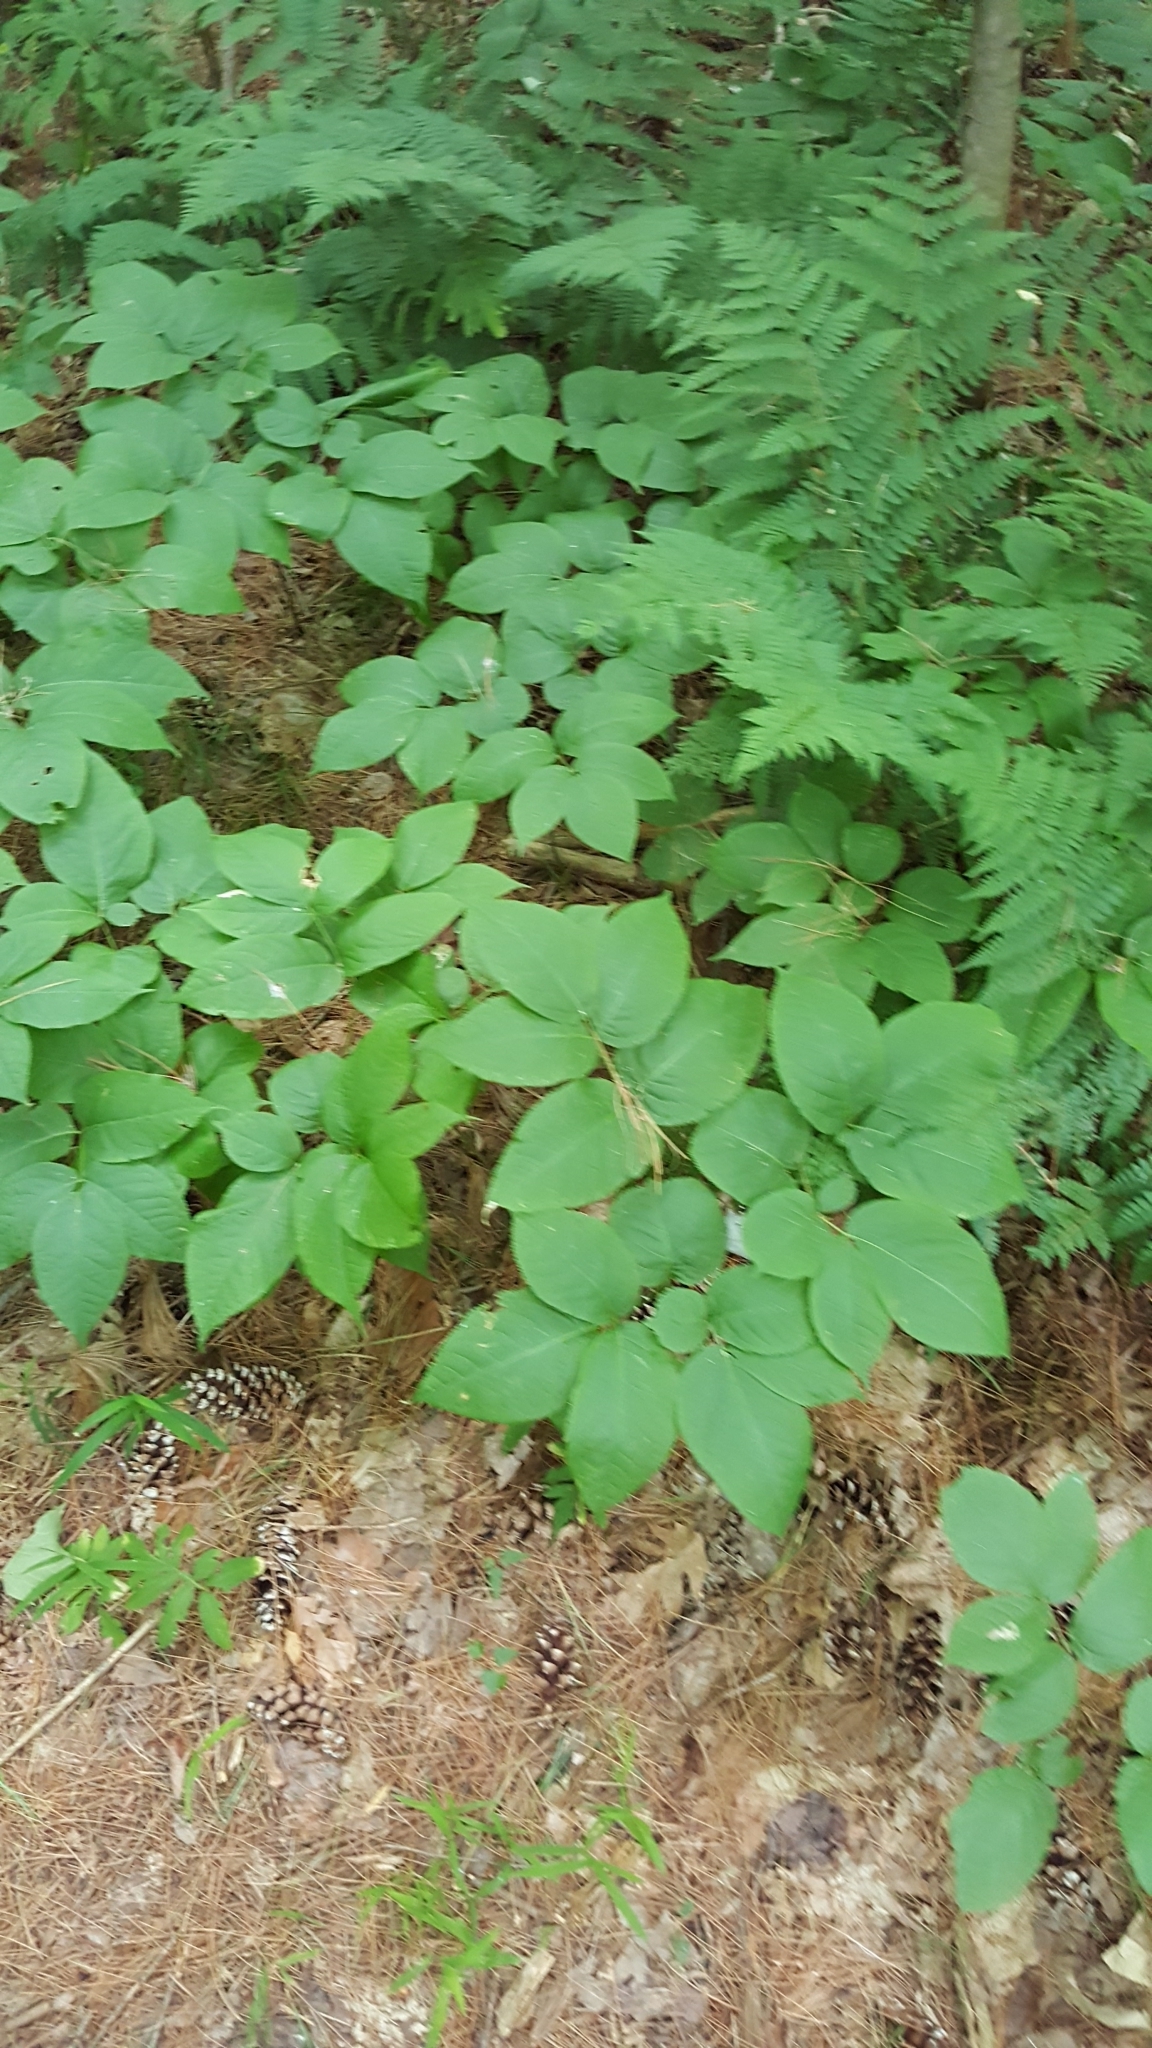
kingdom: Plantae
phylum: Tracheophyta
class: Magnoliopsida
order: Apiales
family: Araliaceae
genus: Aralia
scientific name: Aralia nudicaulis
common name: Wild sarsaparilla
